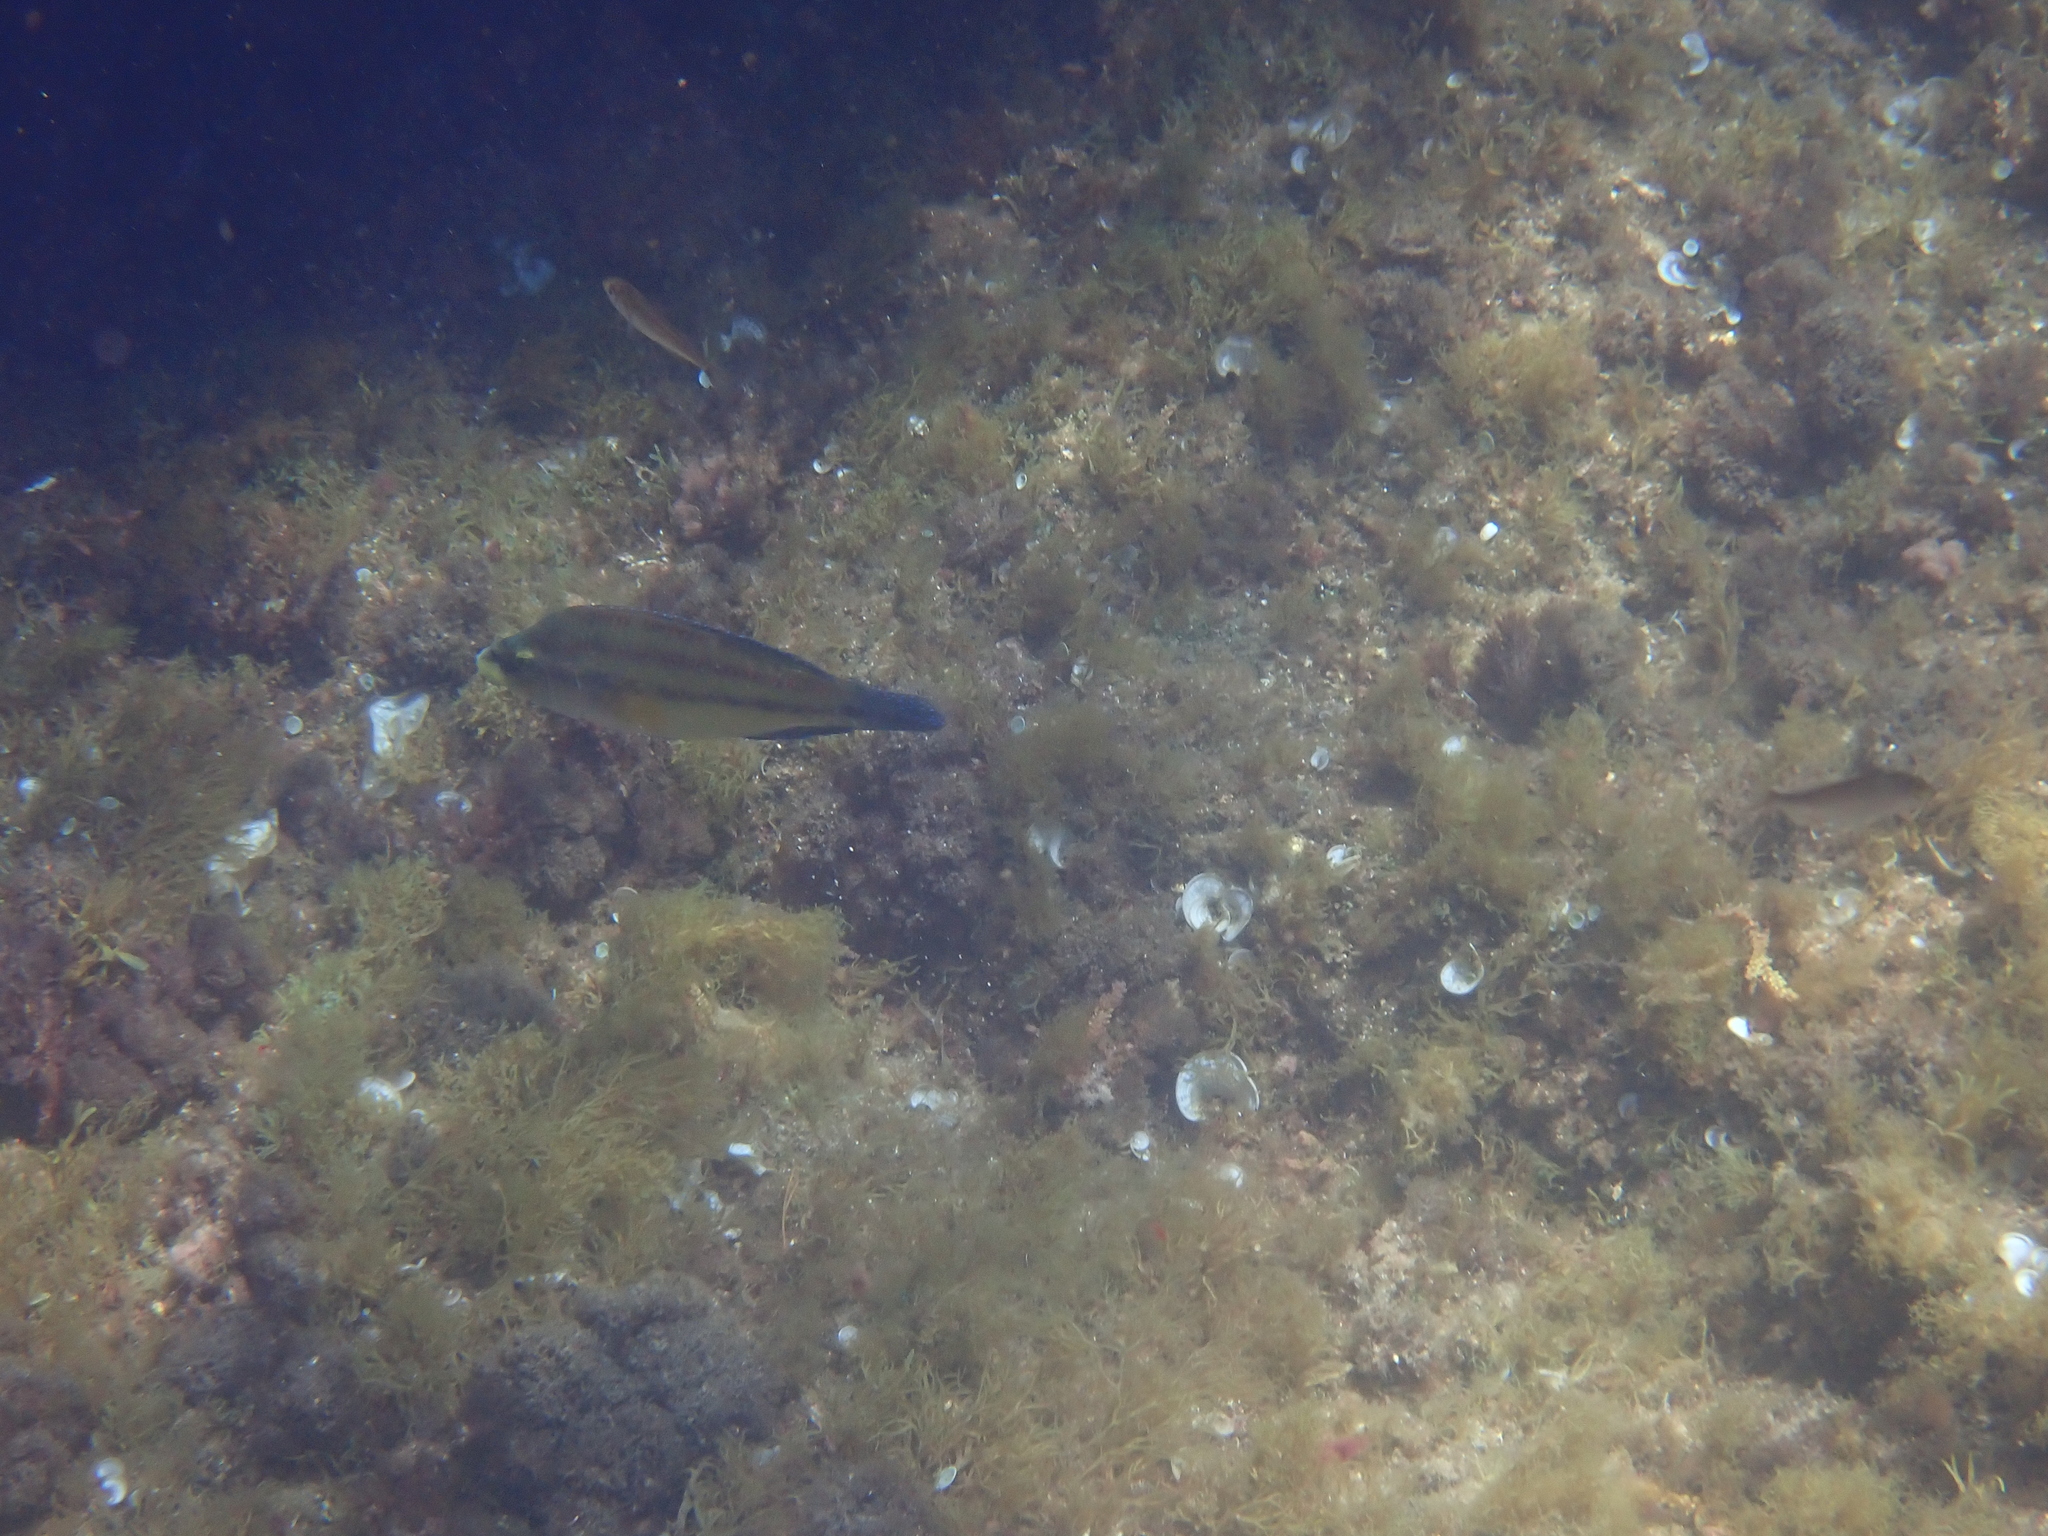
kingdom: Animalia
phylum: Chordata
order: Perciformes
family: Labridae
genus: Symphodus
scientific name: Symphodus tinca
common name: Peacock wrasse
